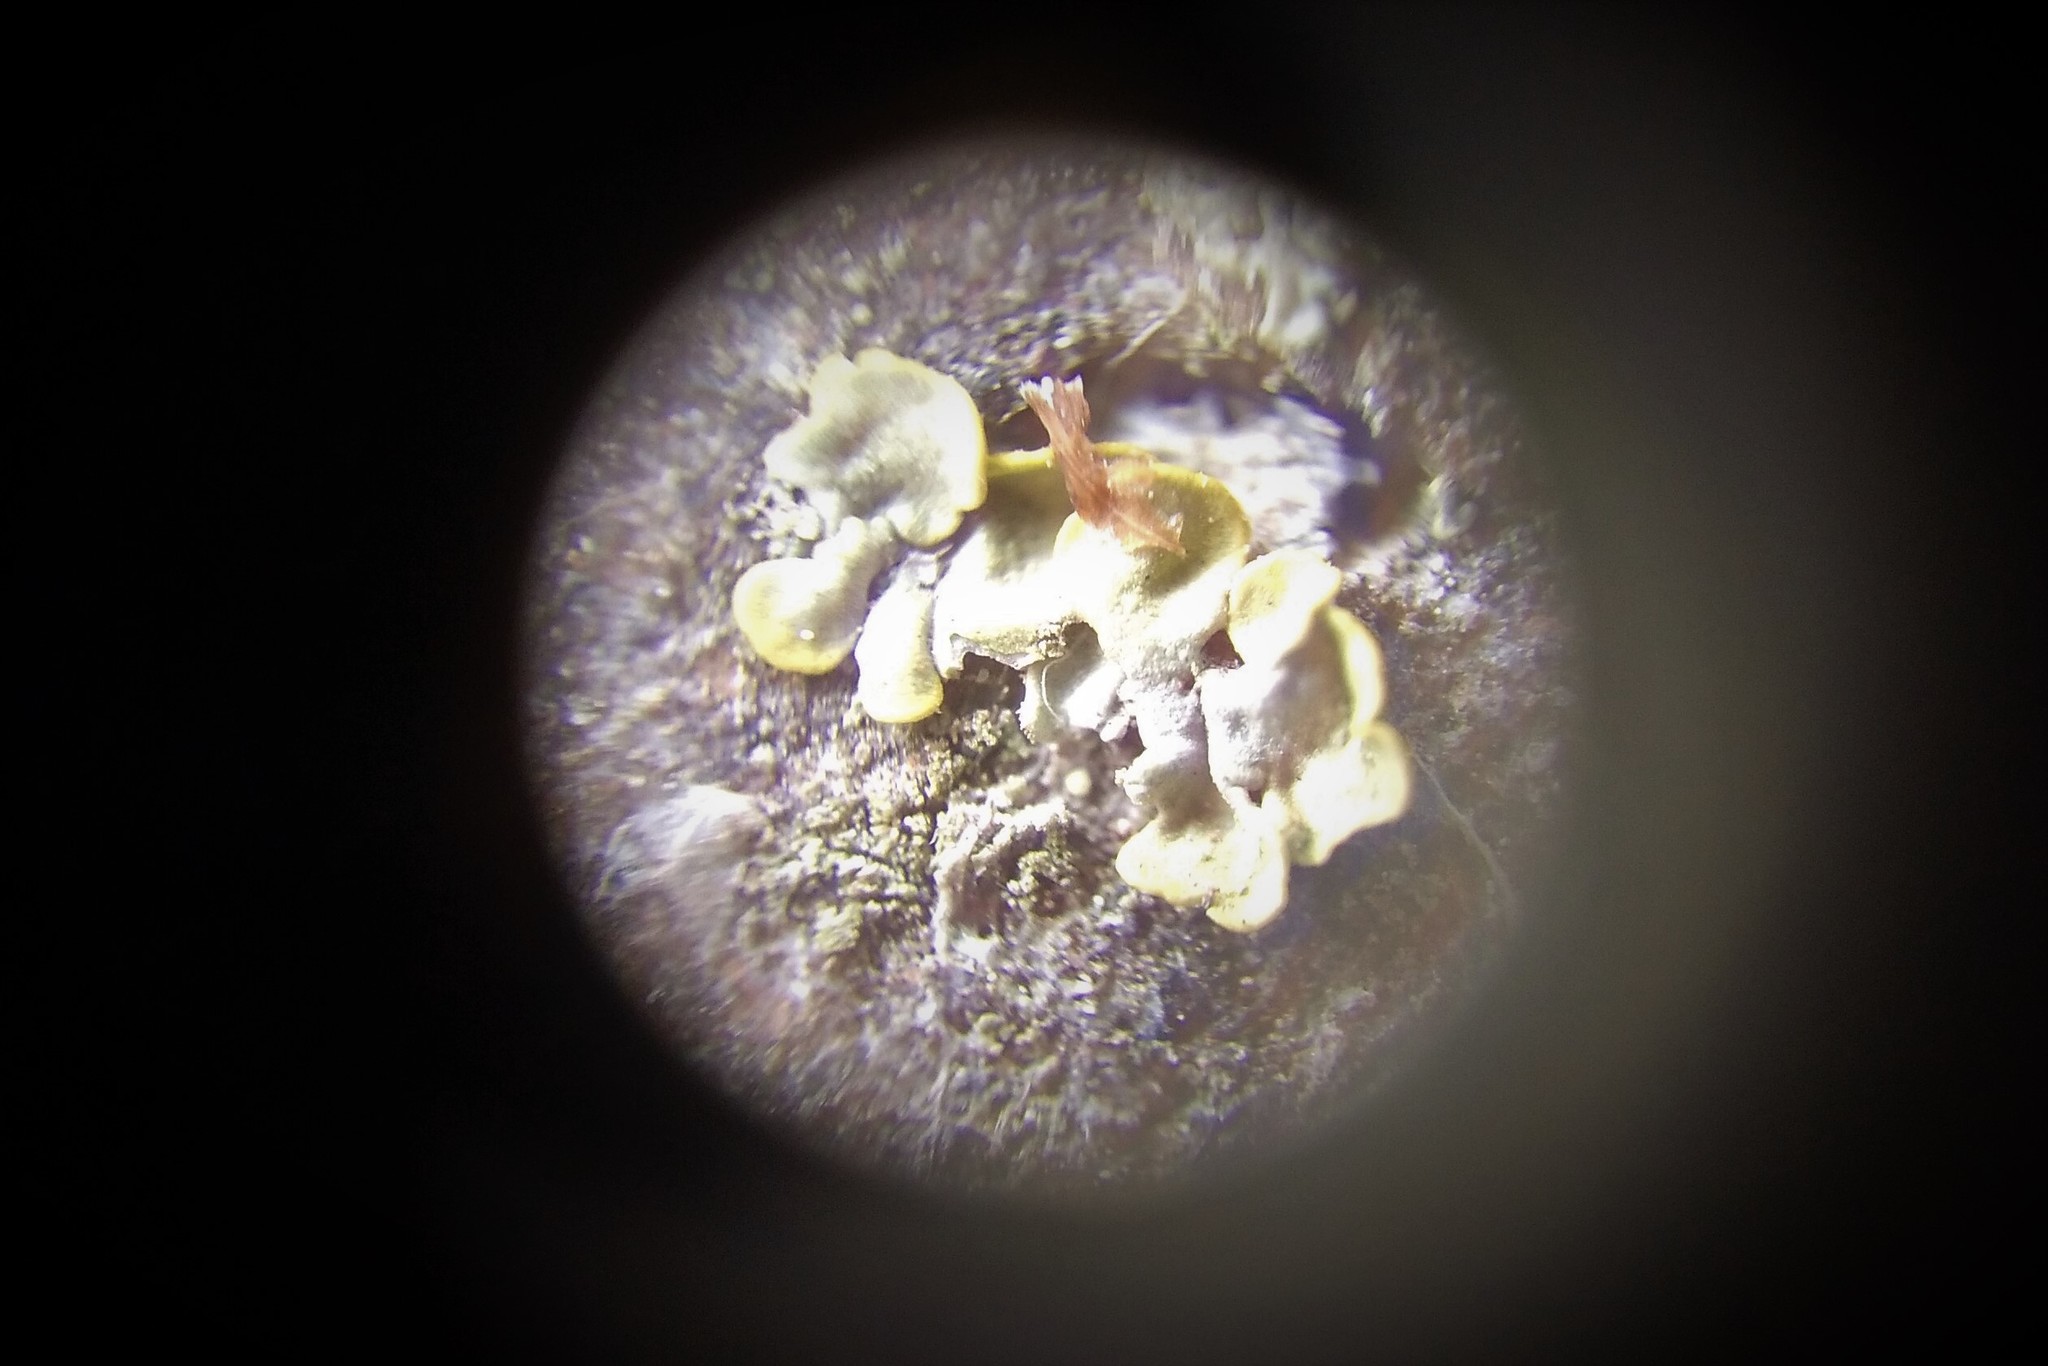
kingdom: Fungi
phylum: Ascomycota
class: Lecanoromycetes
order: Teloschistales
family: Teloschistaceae
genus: Xanthoria
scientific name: Xanthoria parietina
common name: Common orange lichen
